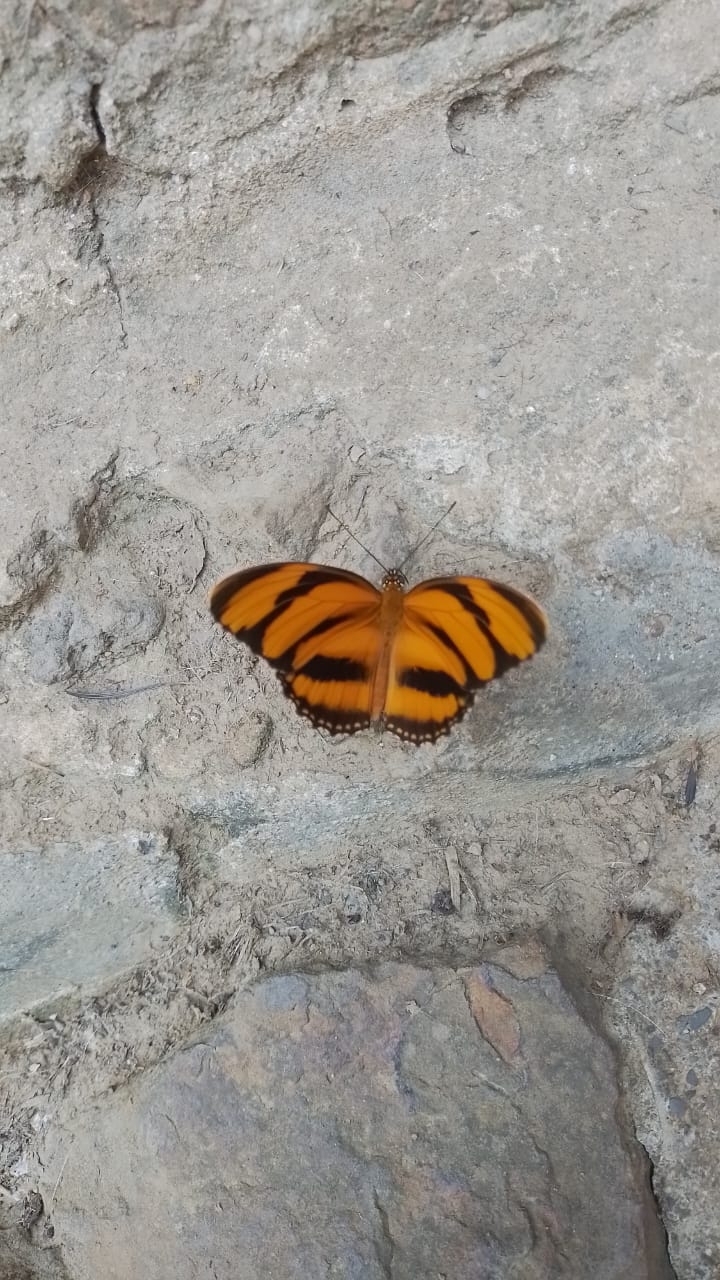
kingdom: Animalia
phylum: Arthropoda
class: Insecta
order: Lepidoptera
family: Nymphalidae
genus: Dryadula
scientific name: Dryadula phaetusa
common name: Banded orange heliconian
